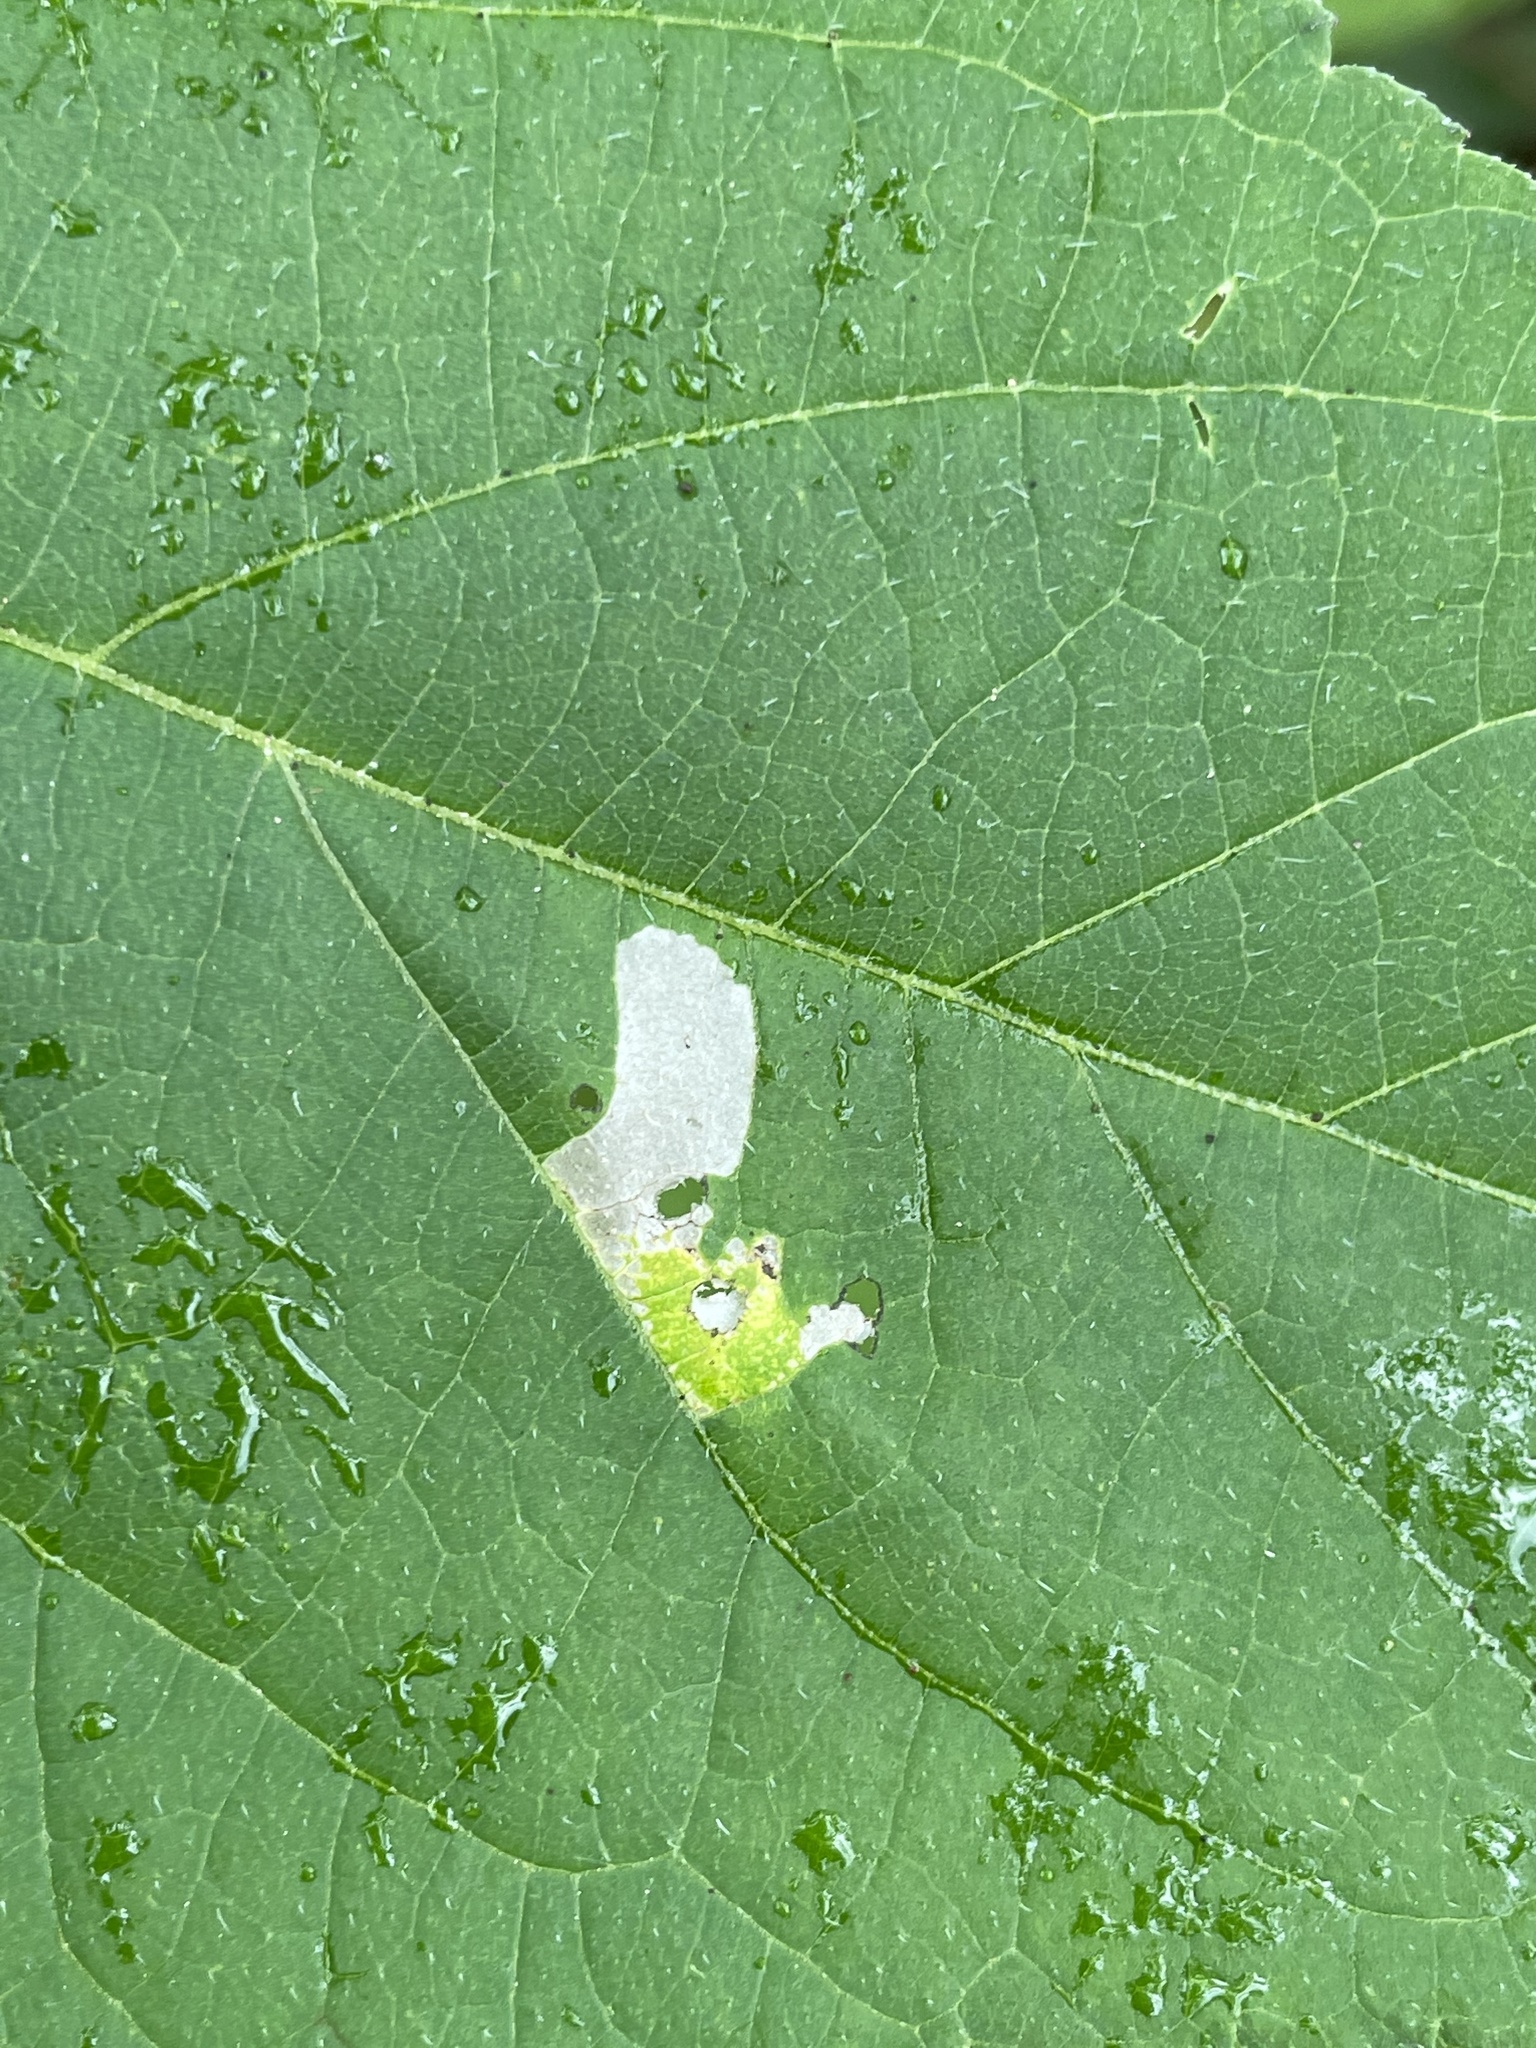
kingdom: Animalia
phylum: Arthropoda
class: Insecta
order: Lepidoptera
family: Tischeriidae
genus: Astrotischeria
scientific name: Astrotischeria ambrosiaeella
